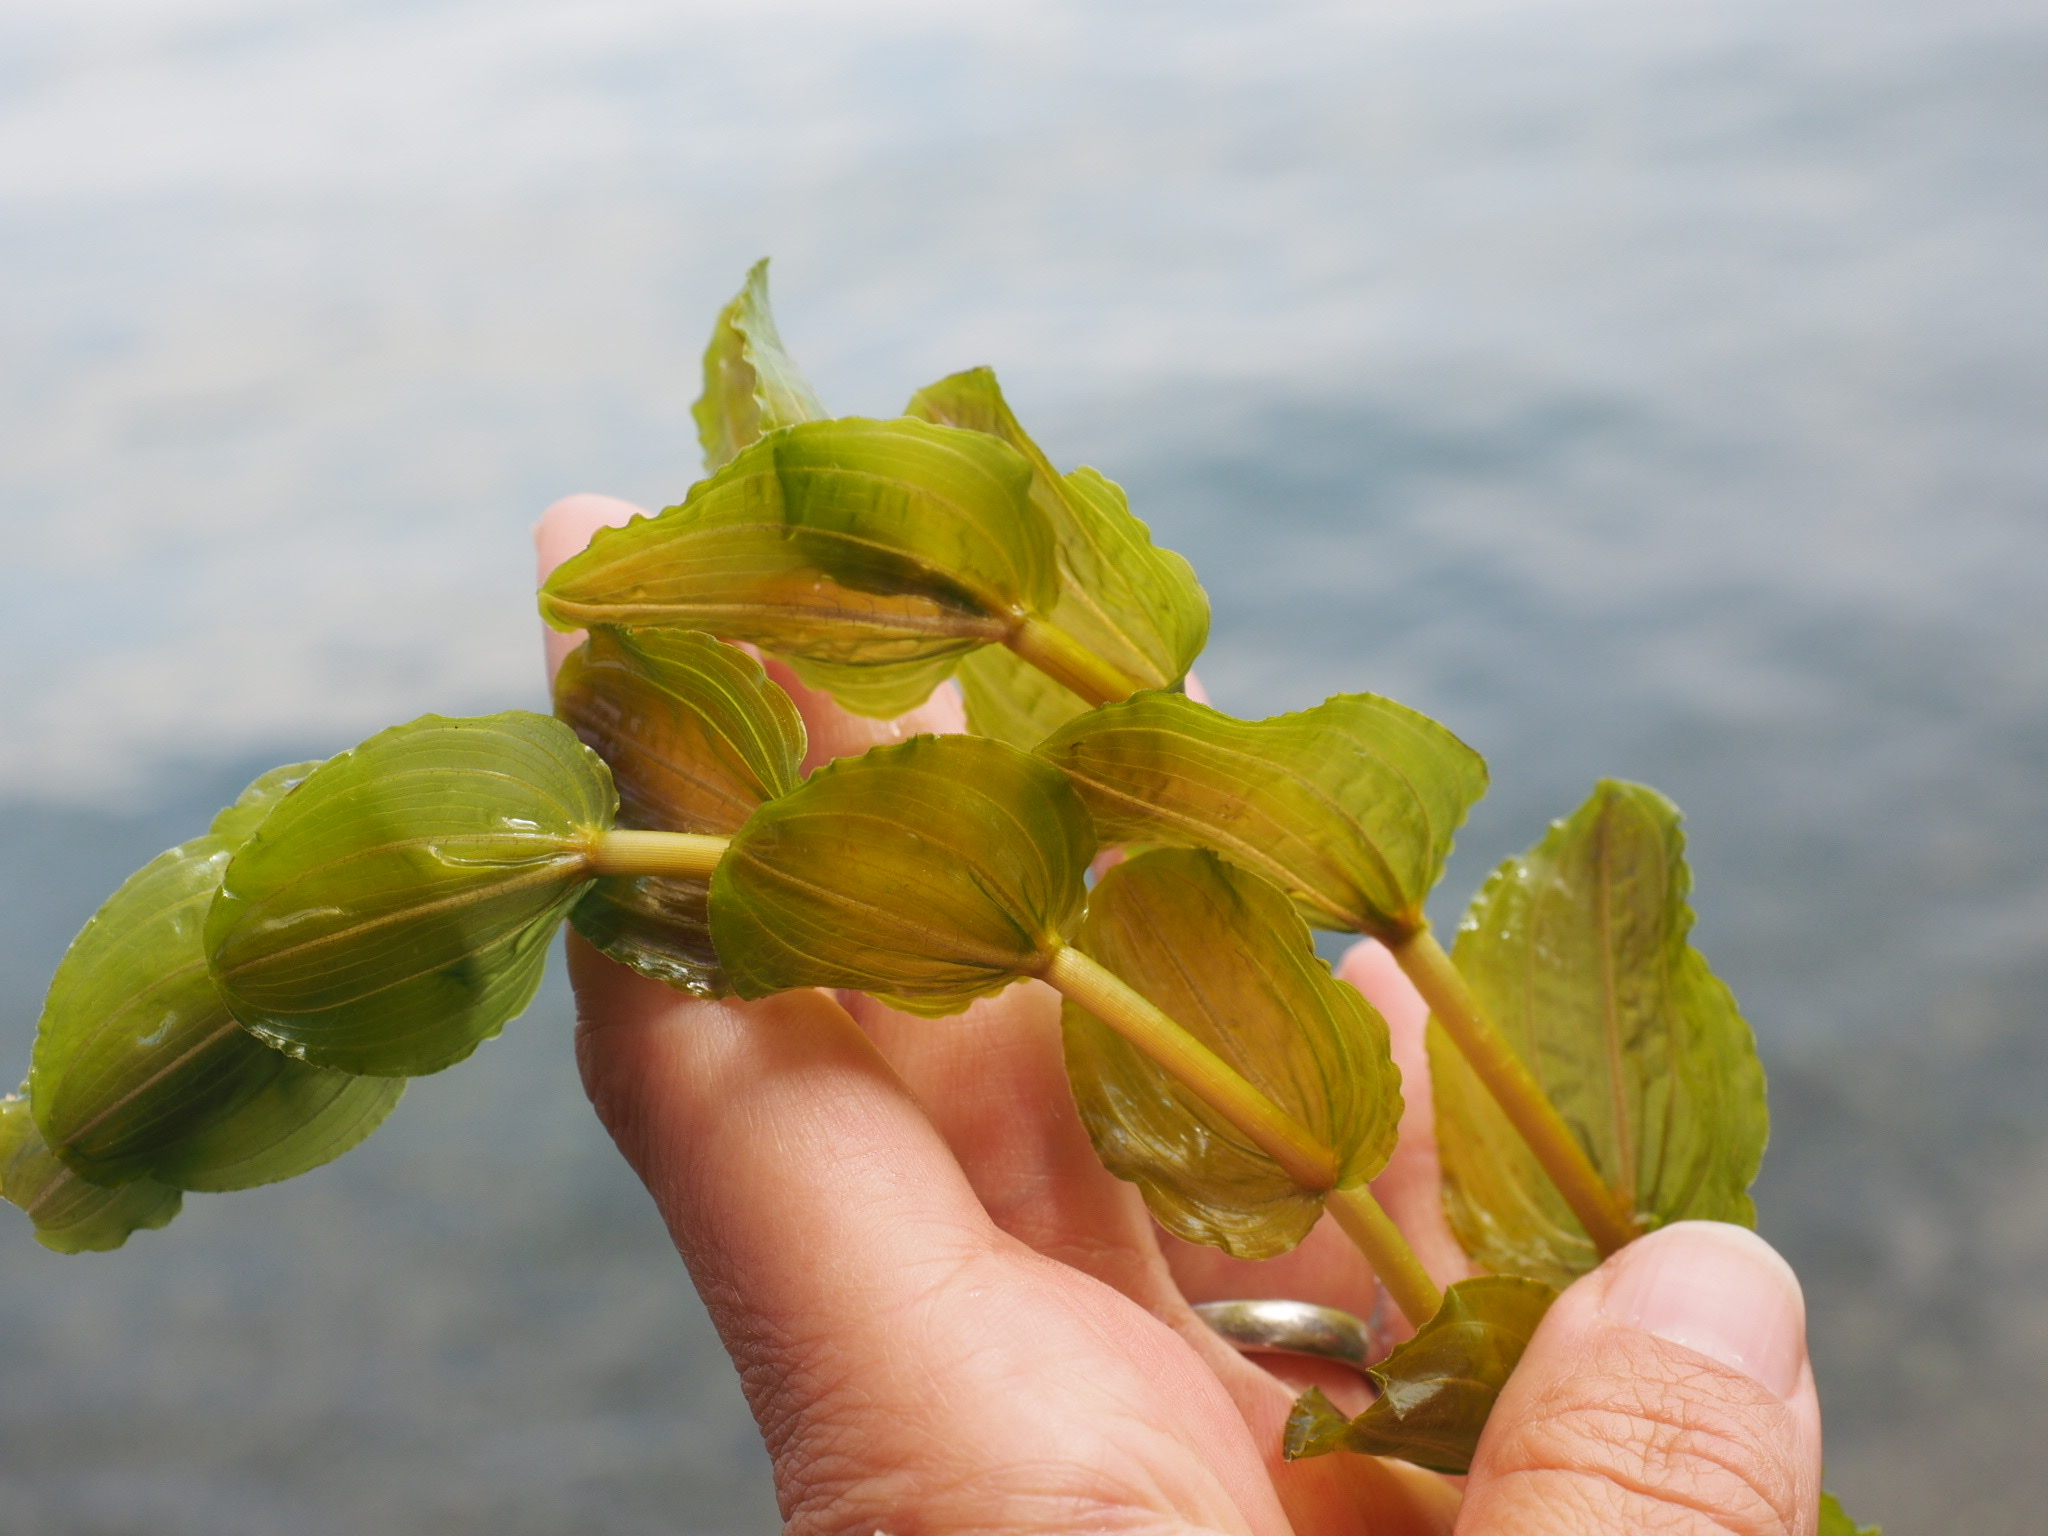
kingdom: Plantae
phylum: Tracheophyta
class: Liliopsida
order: Alismatales
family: Potamogetonaceae
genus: Potamogeton
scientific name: Potamogeton perfoliatus
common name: Perfoliate pondweed
